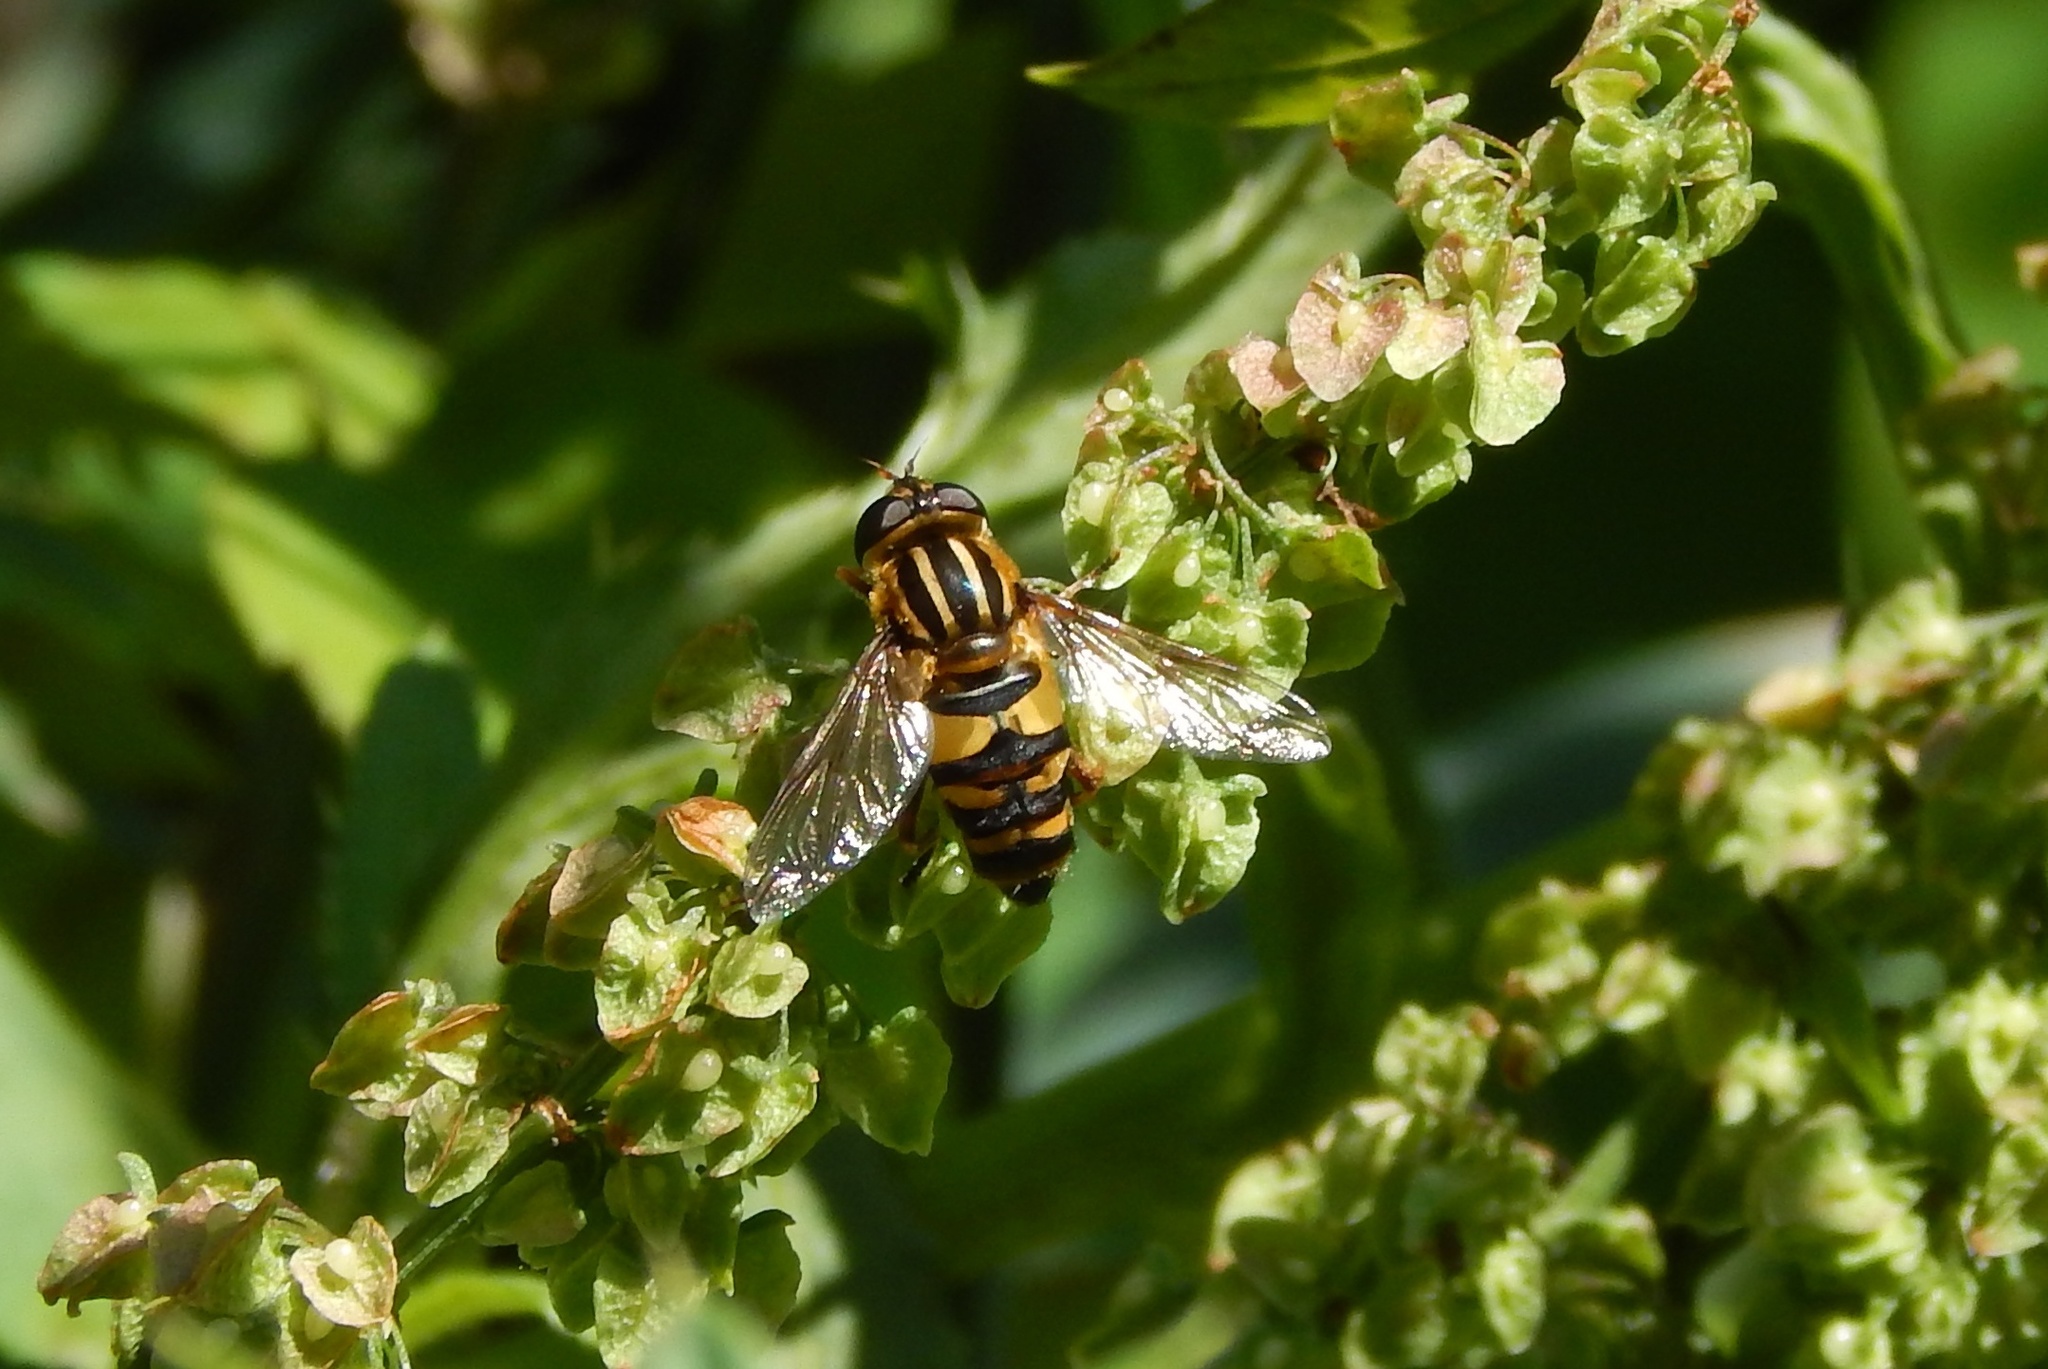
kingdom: Animalia
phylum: Arthropoda
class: Insecta
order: Diptera
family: Syrphidae
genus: Helophilus
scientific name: Helophilus fasciatus
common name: Narrow-headed marsh fly
